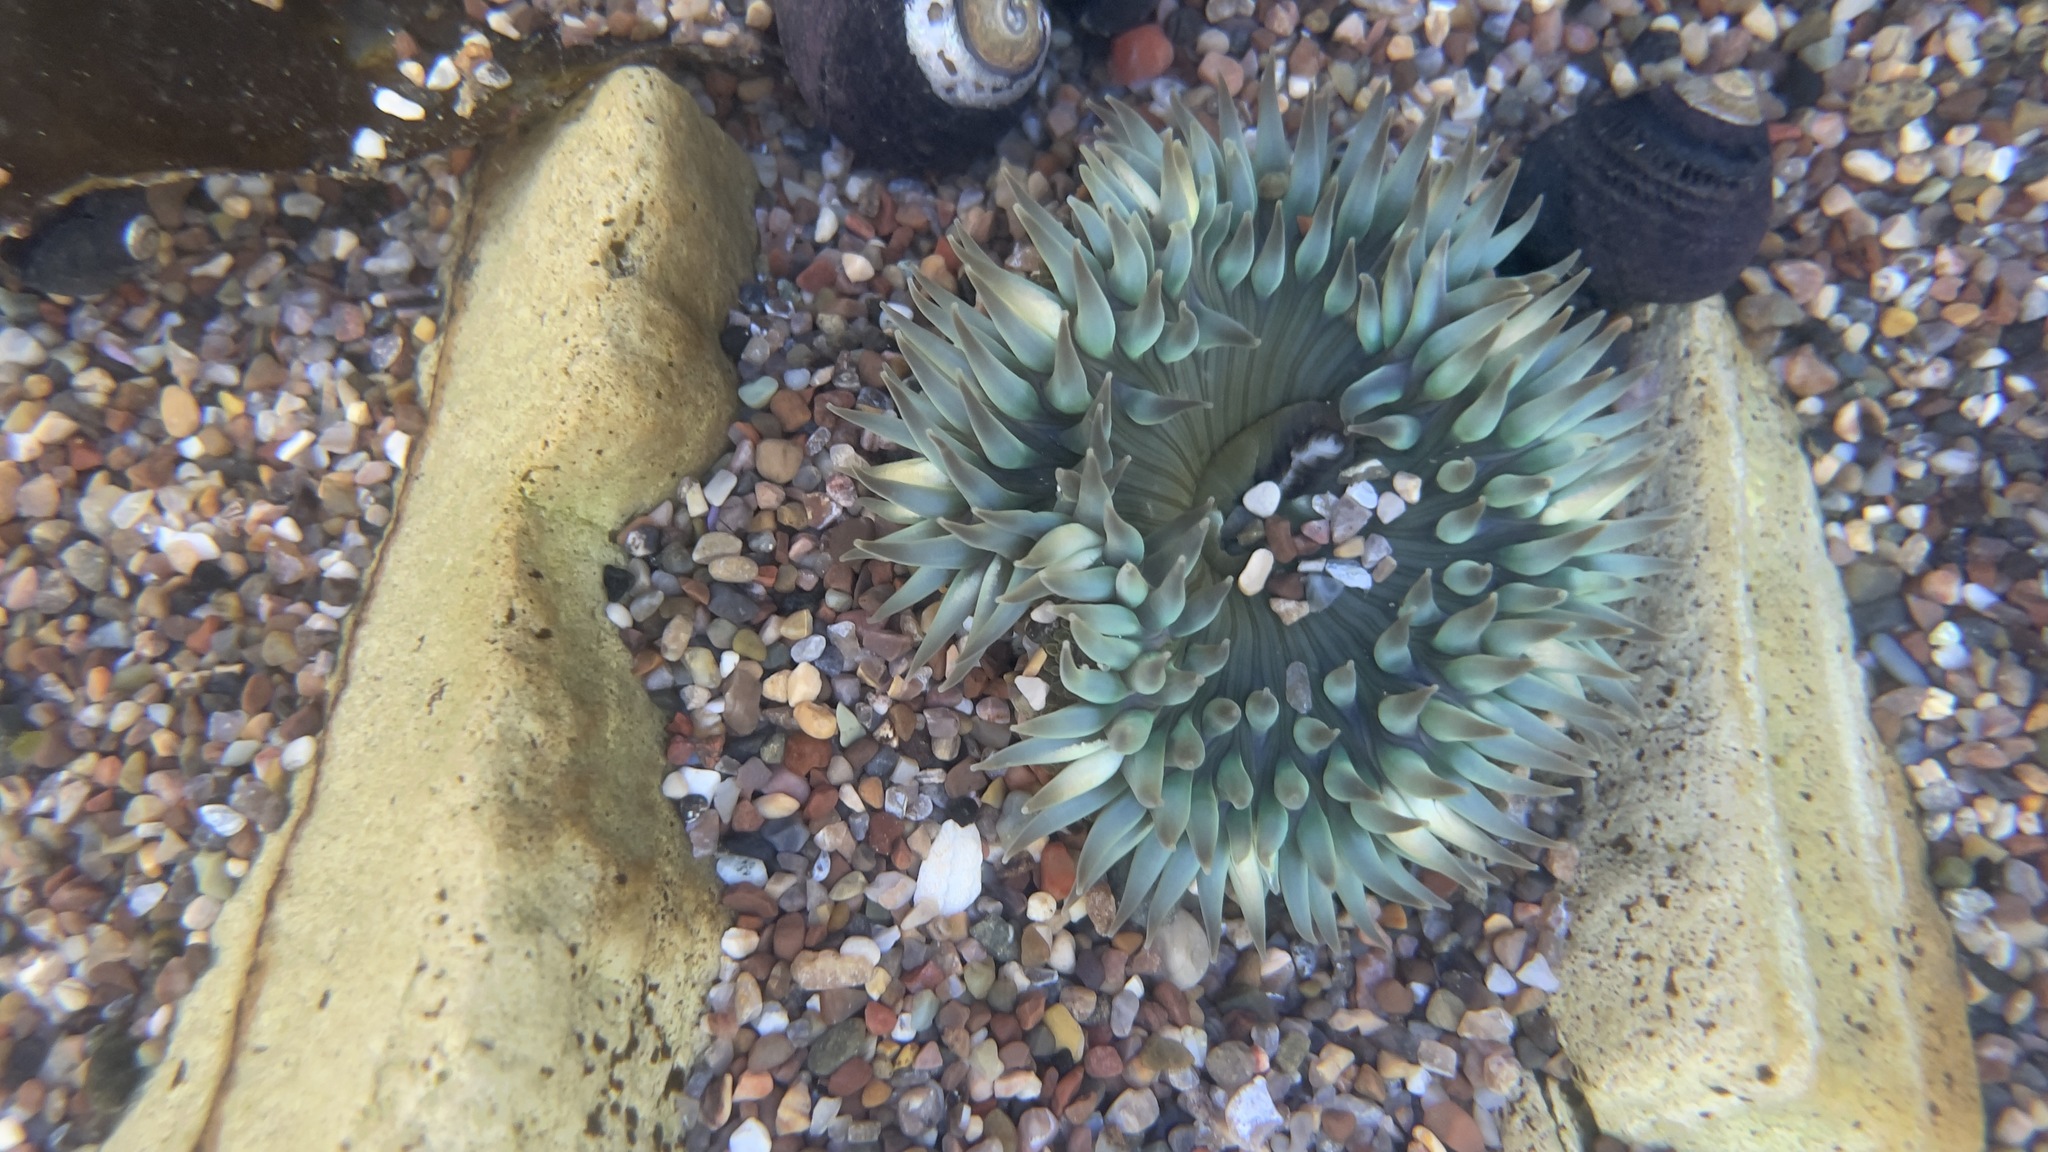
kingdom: Animalia
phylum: Cnidaria
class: Anthozoa
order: Actiniaria
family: Actiniidae
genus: Anthopleura
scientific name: Anthopleura sola
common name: Sun anemone
